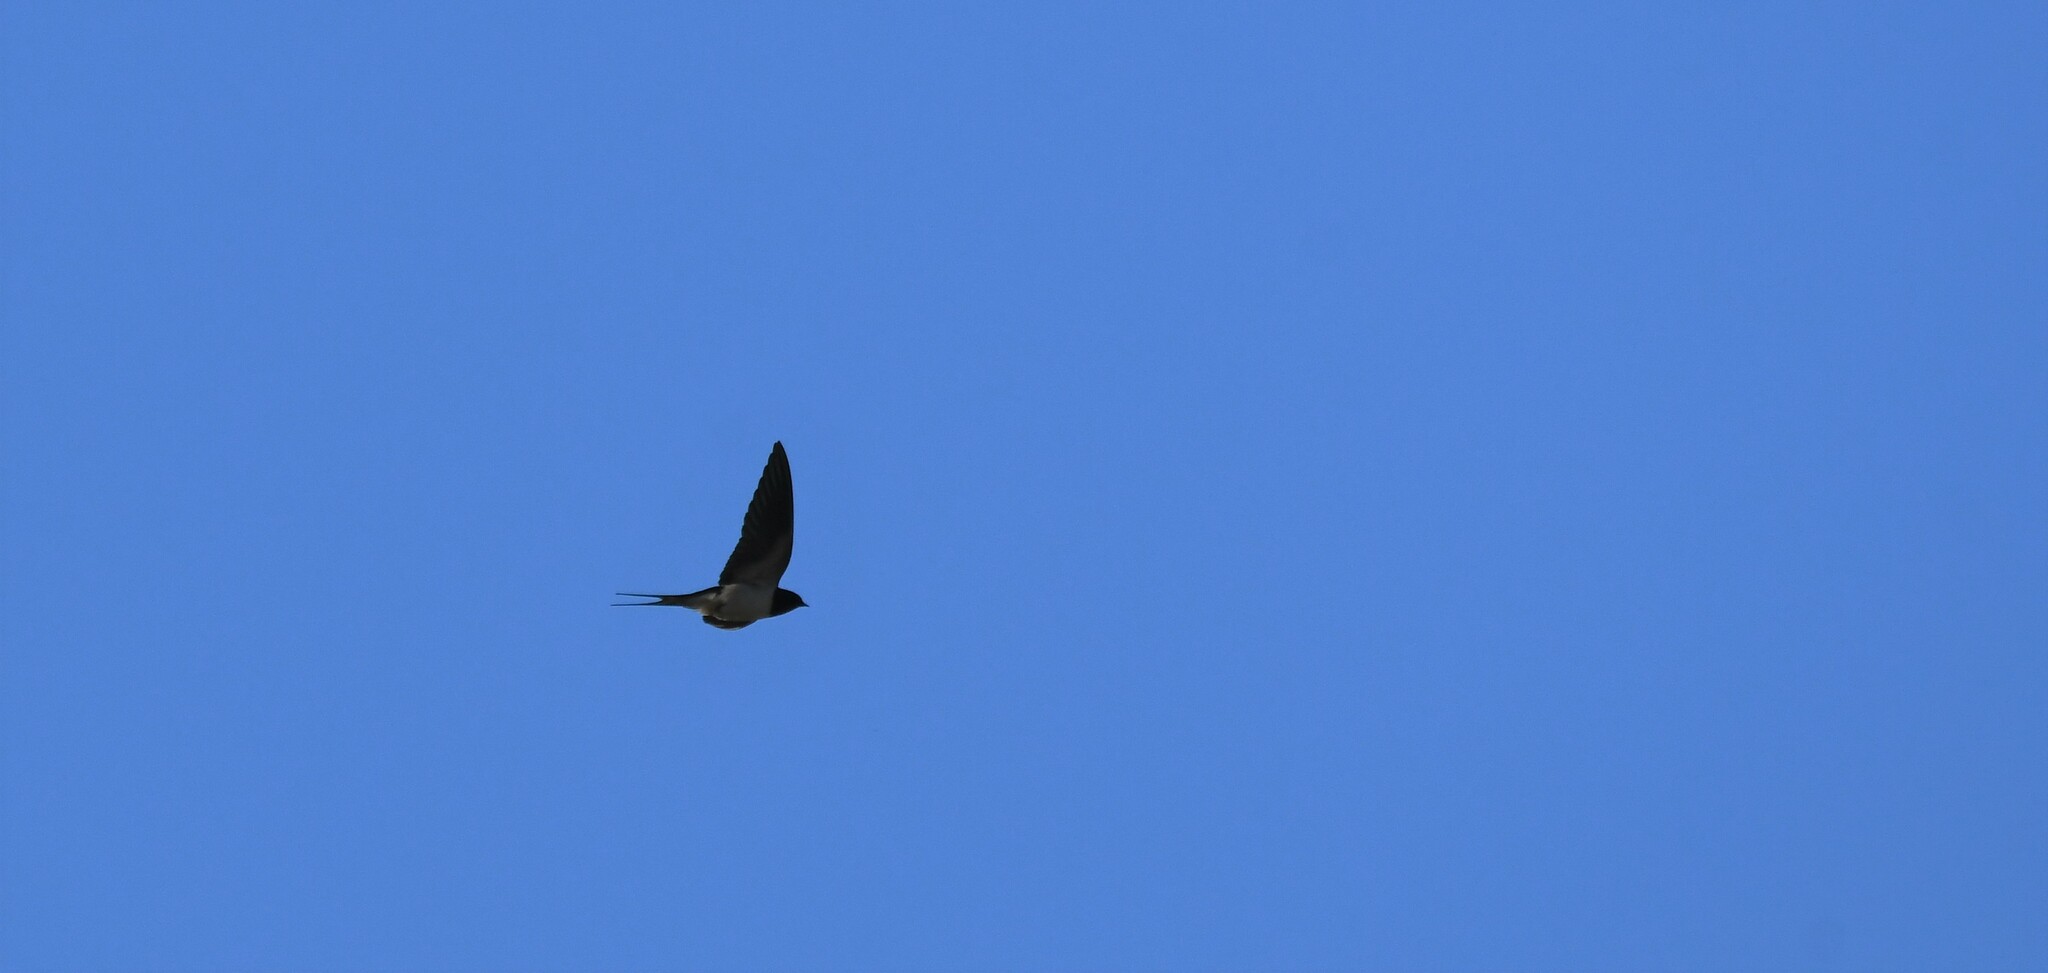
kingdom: Animalia
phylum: Chordata
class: Aves
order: Passeriformes
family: Hirundinidae
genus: Hirundo
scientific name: Hirundo rustica
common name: Barn swallow
